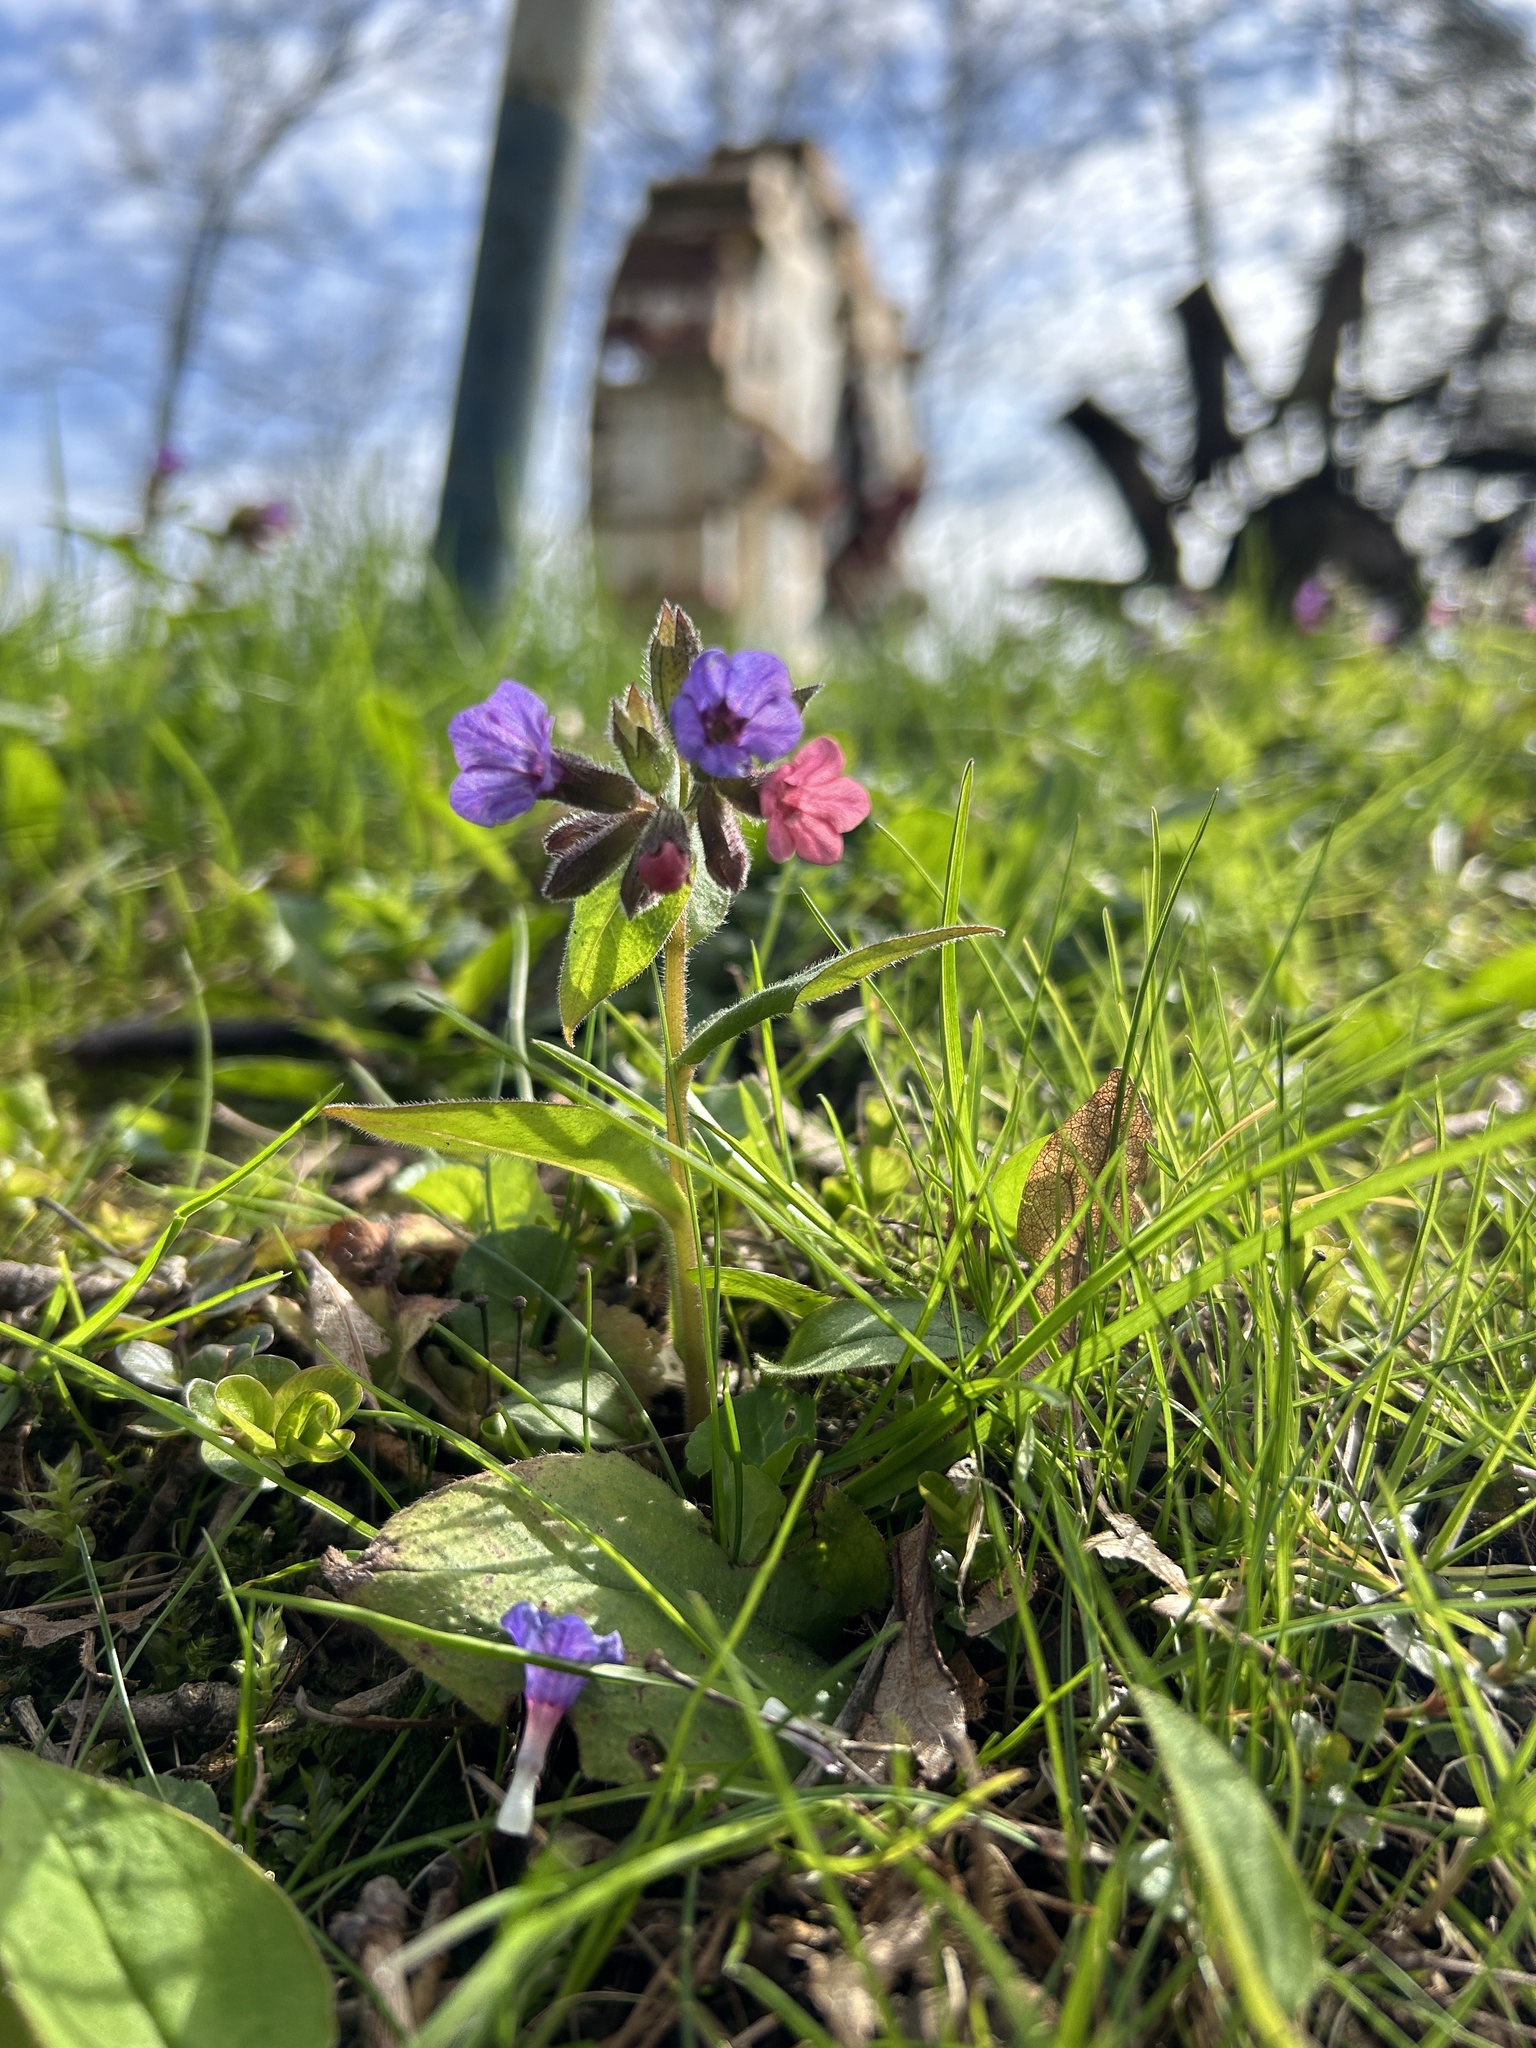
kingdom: Plantae
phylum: Tracheophyta
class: Magnoliopsida
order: Boraginales
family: Boraginaceae
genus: Pulmonaria
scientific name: Pulmonaria obscura
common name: Suffolk lungwort
